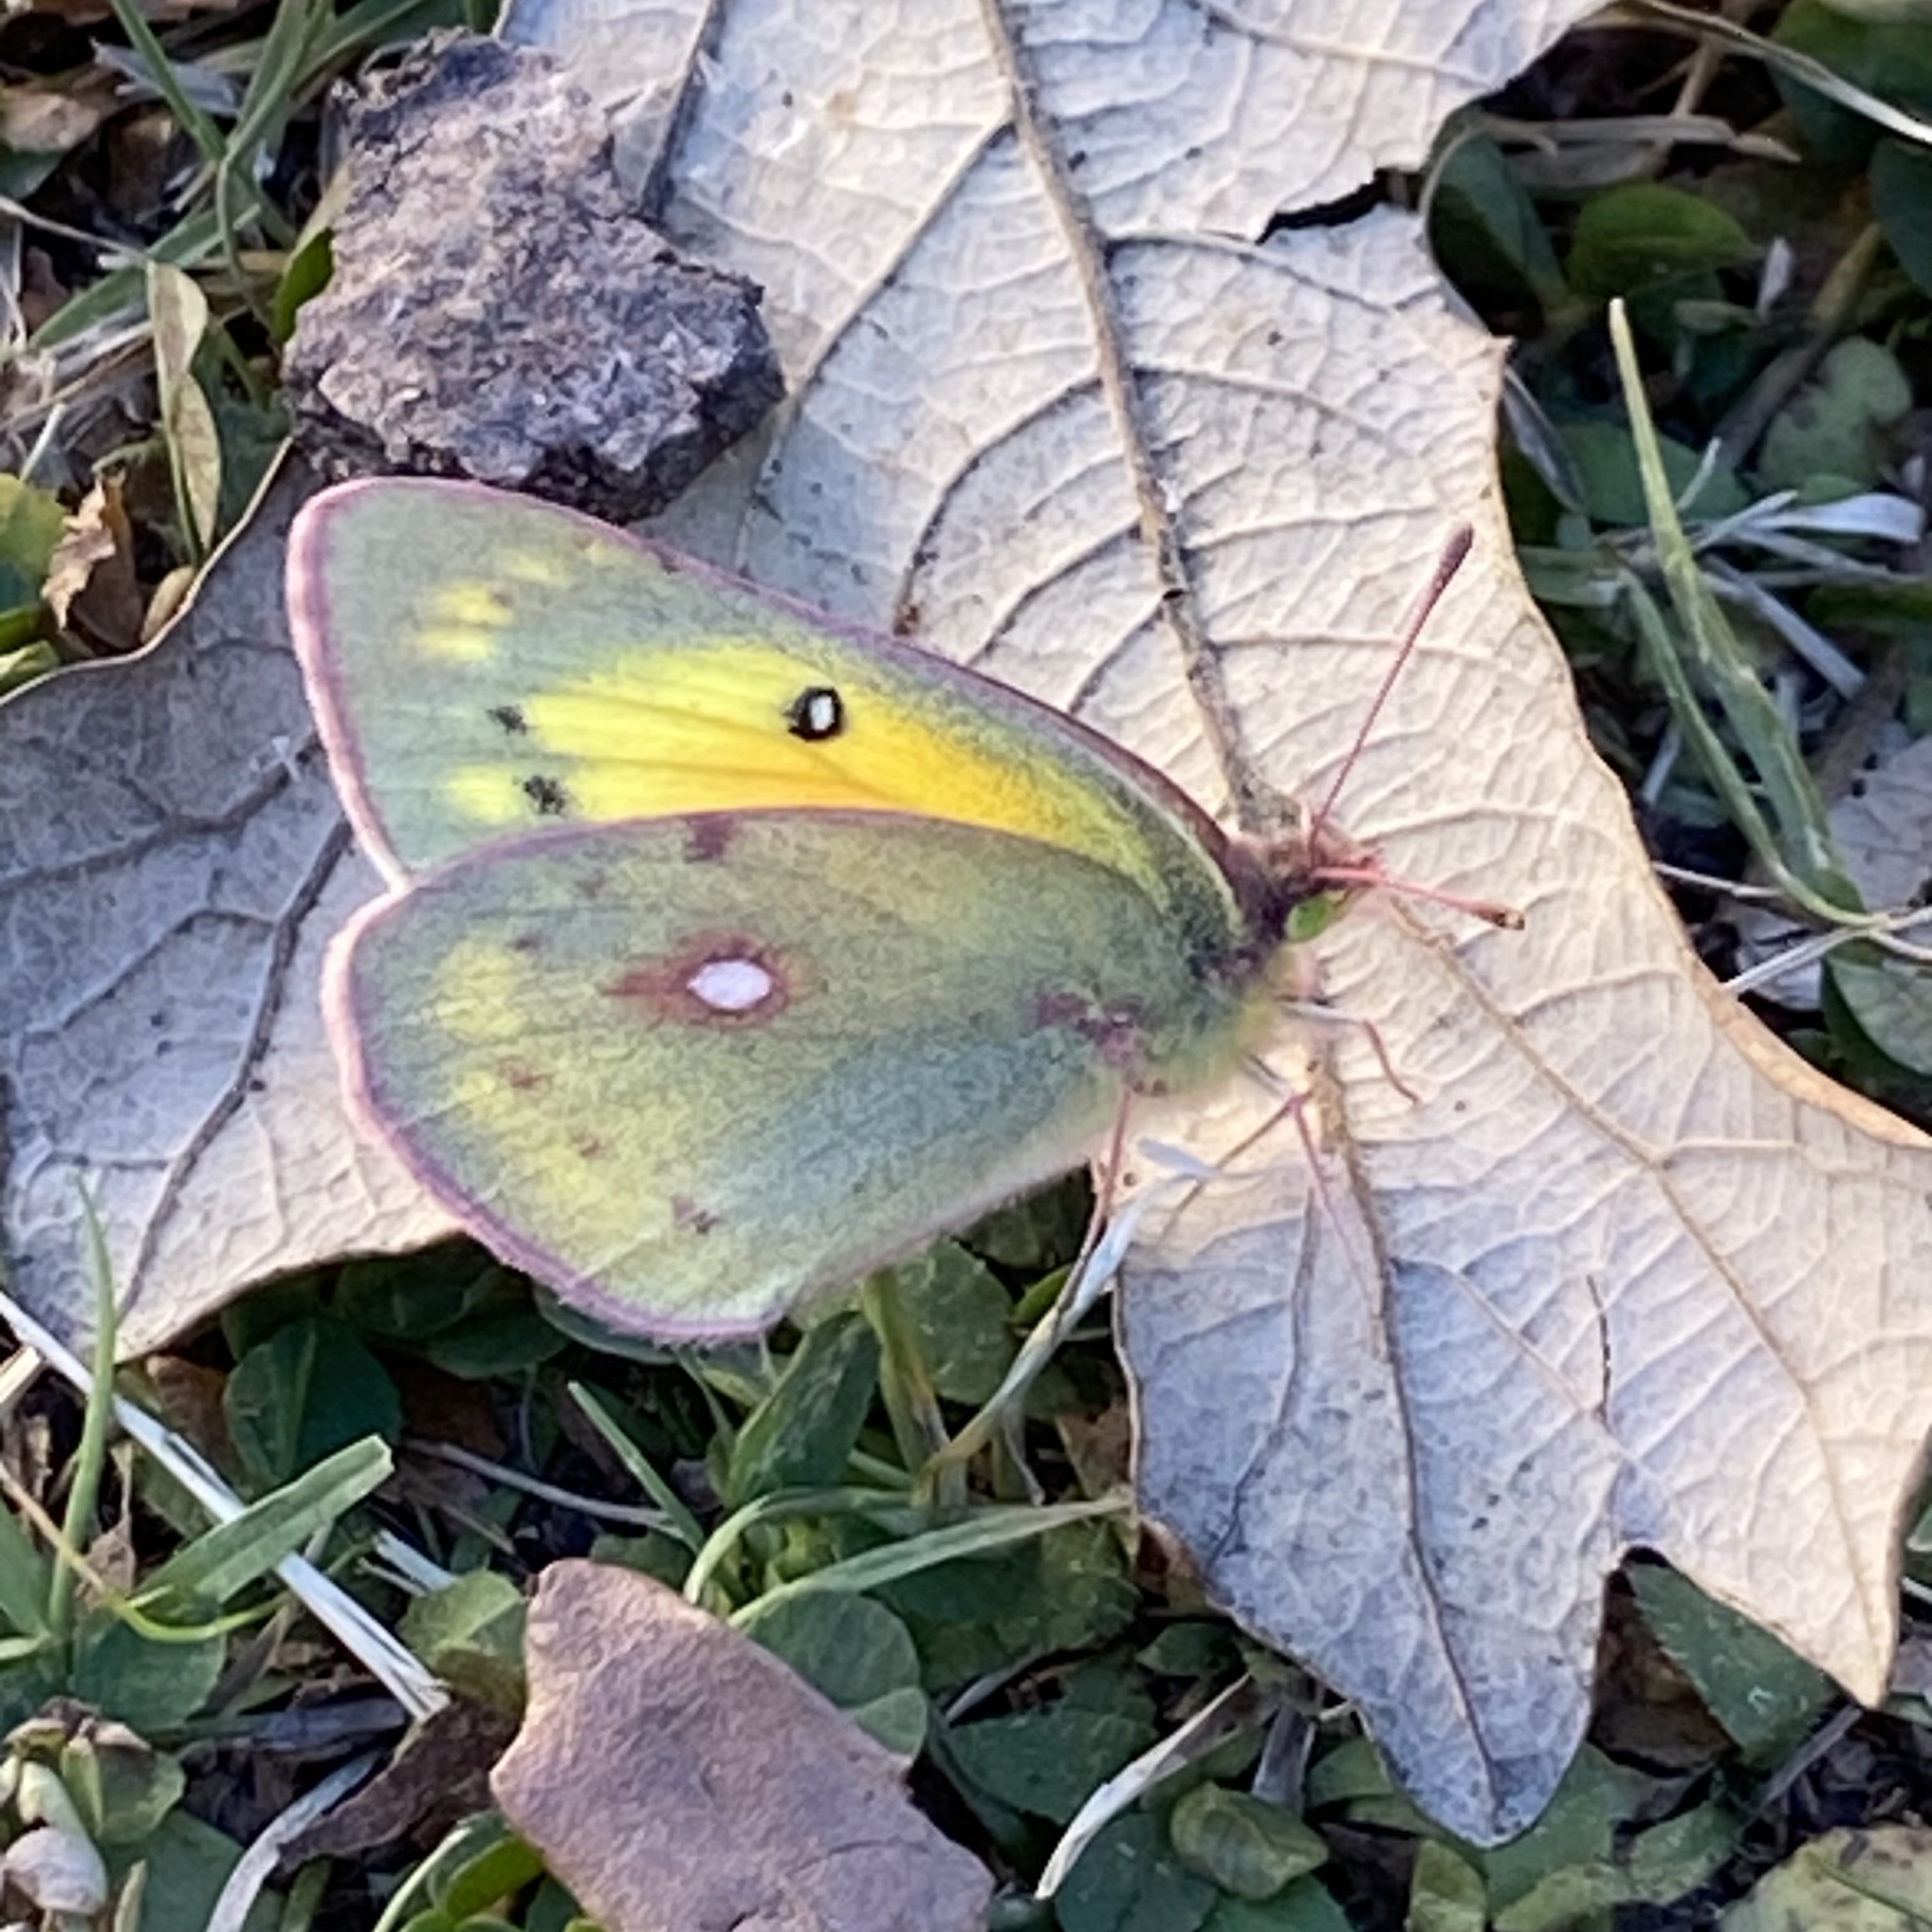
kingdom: Animalia
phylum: Arthropoda
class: Insecta
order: Lepidoptera
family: Pieridae
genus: Colias
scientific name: Colias eurytheme
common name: Alfalfa butterfly
